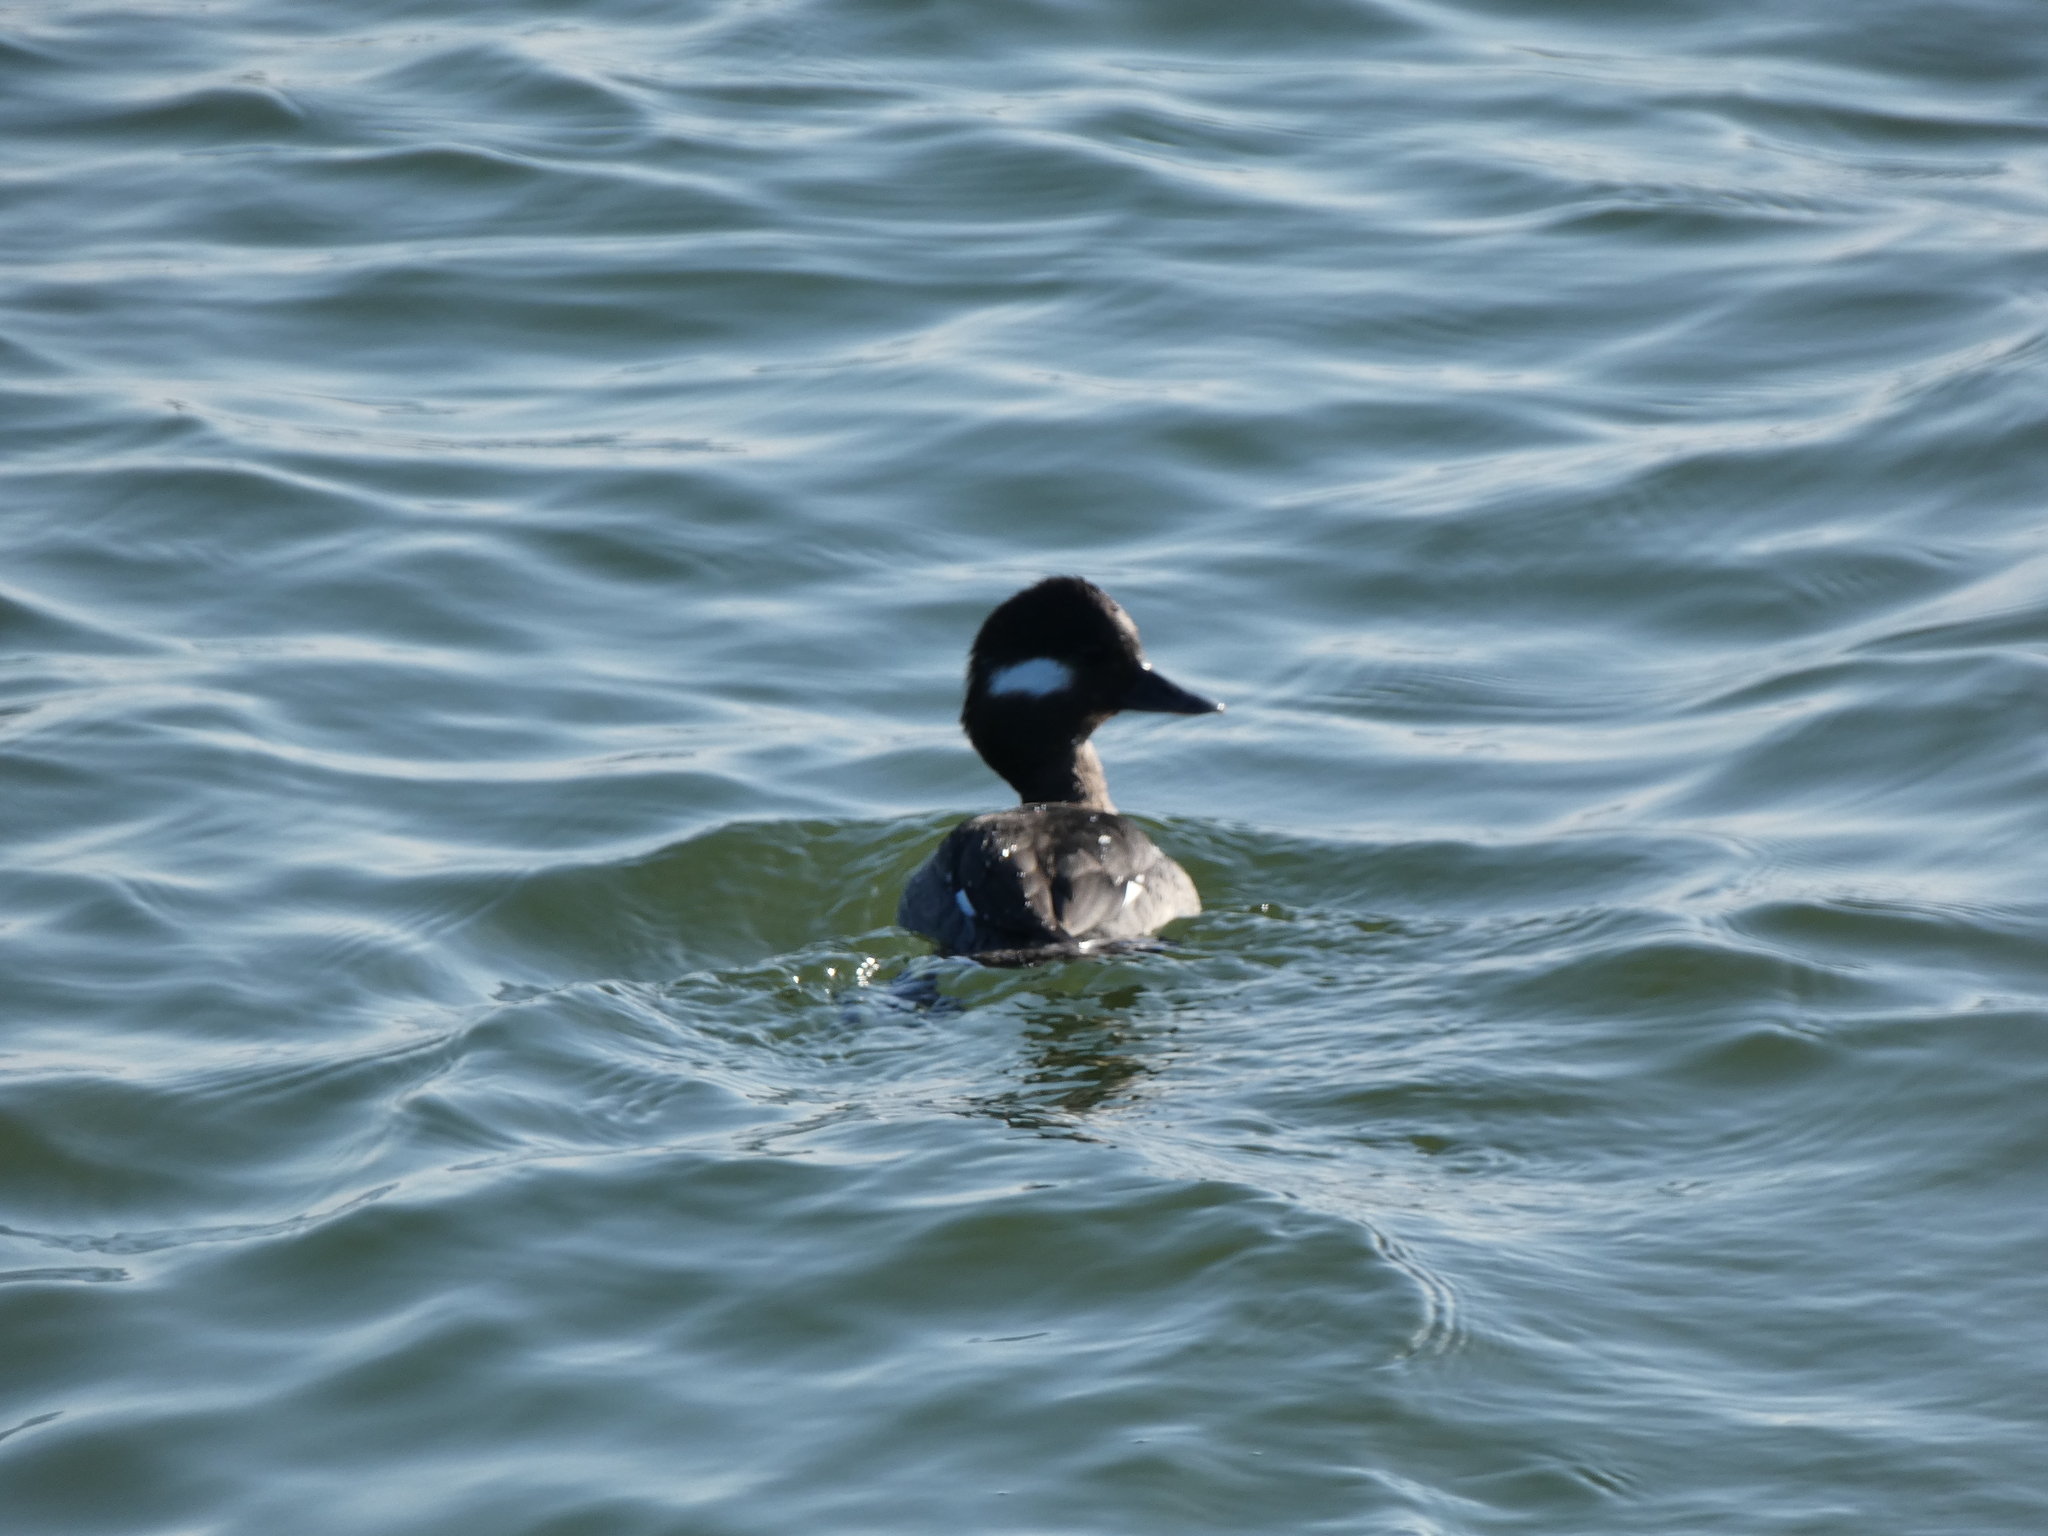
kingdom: Animalia
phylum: Chordata
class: Aves
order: Anseriformes
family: Anatidae
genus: Bucephala
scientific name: Bucephala albeola
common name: Bufflehead
